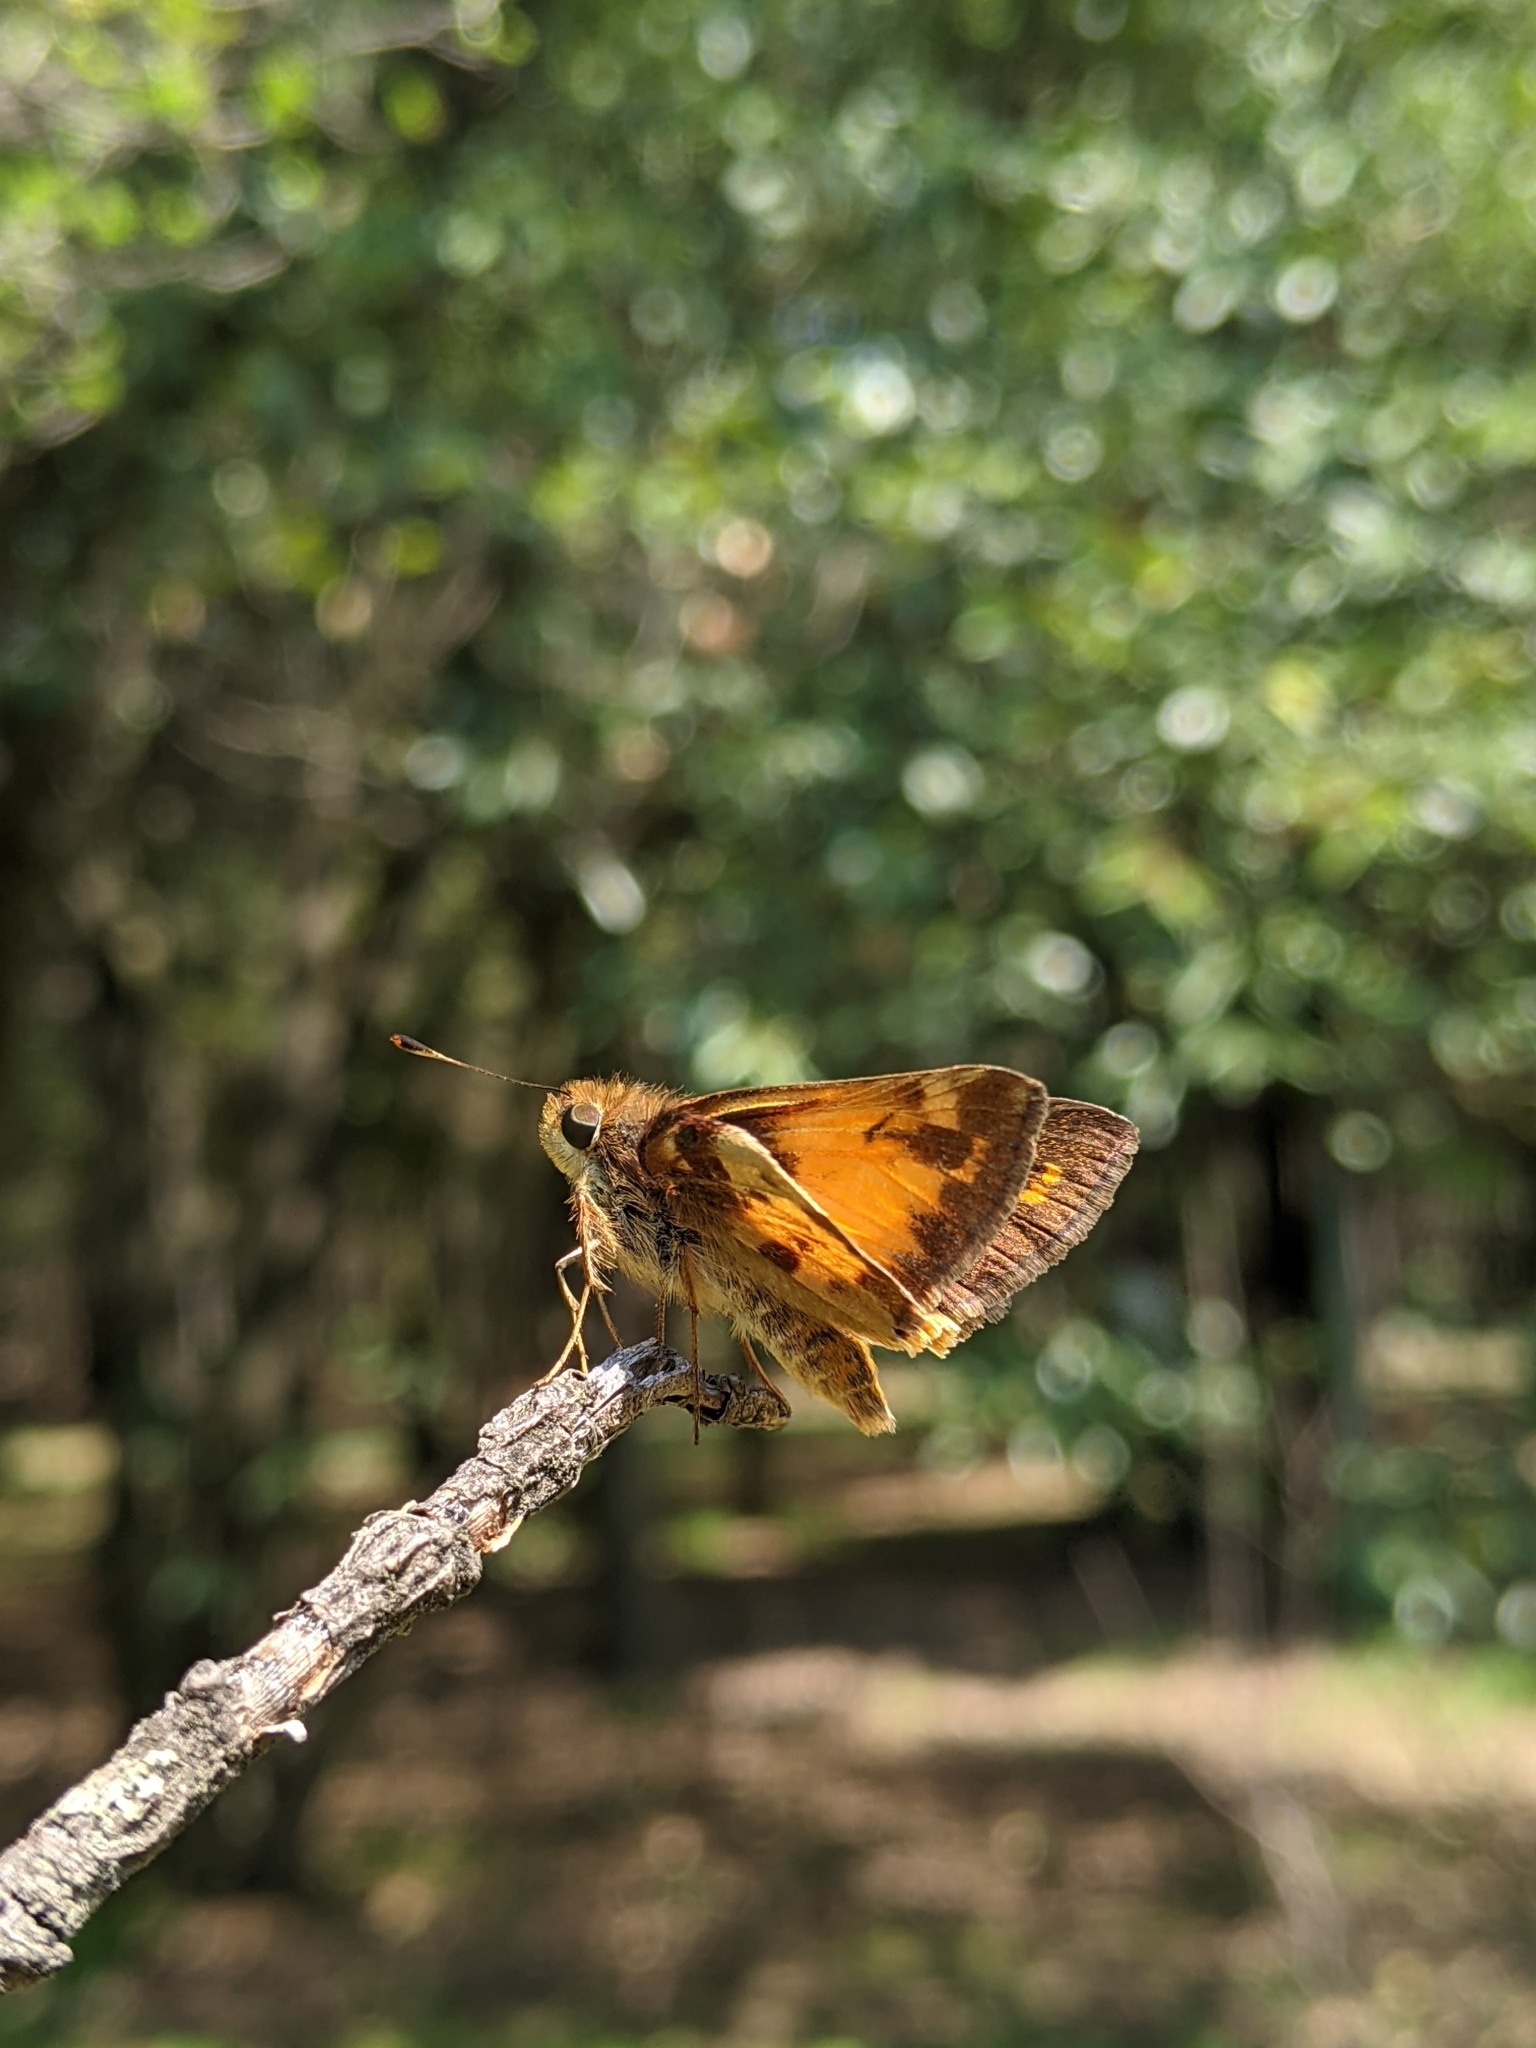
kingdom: Animalia
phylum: Arthropoda
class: Insecta
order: Lepidoptera
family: Hesperiidae
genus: Lon
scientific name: Lon zabulon
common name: Zabulon skipper
